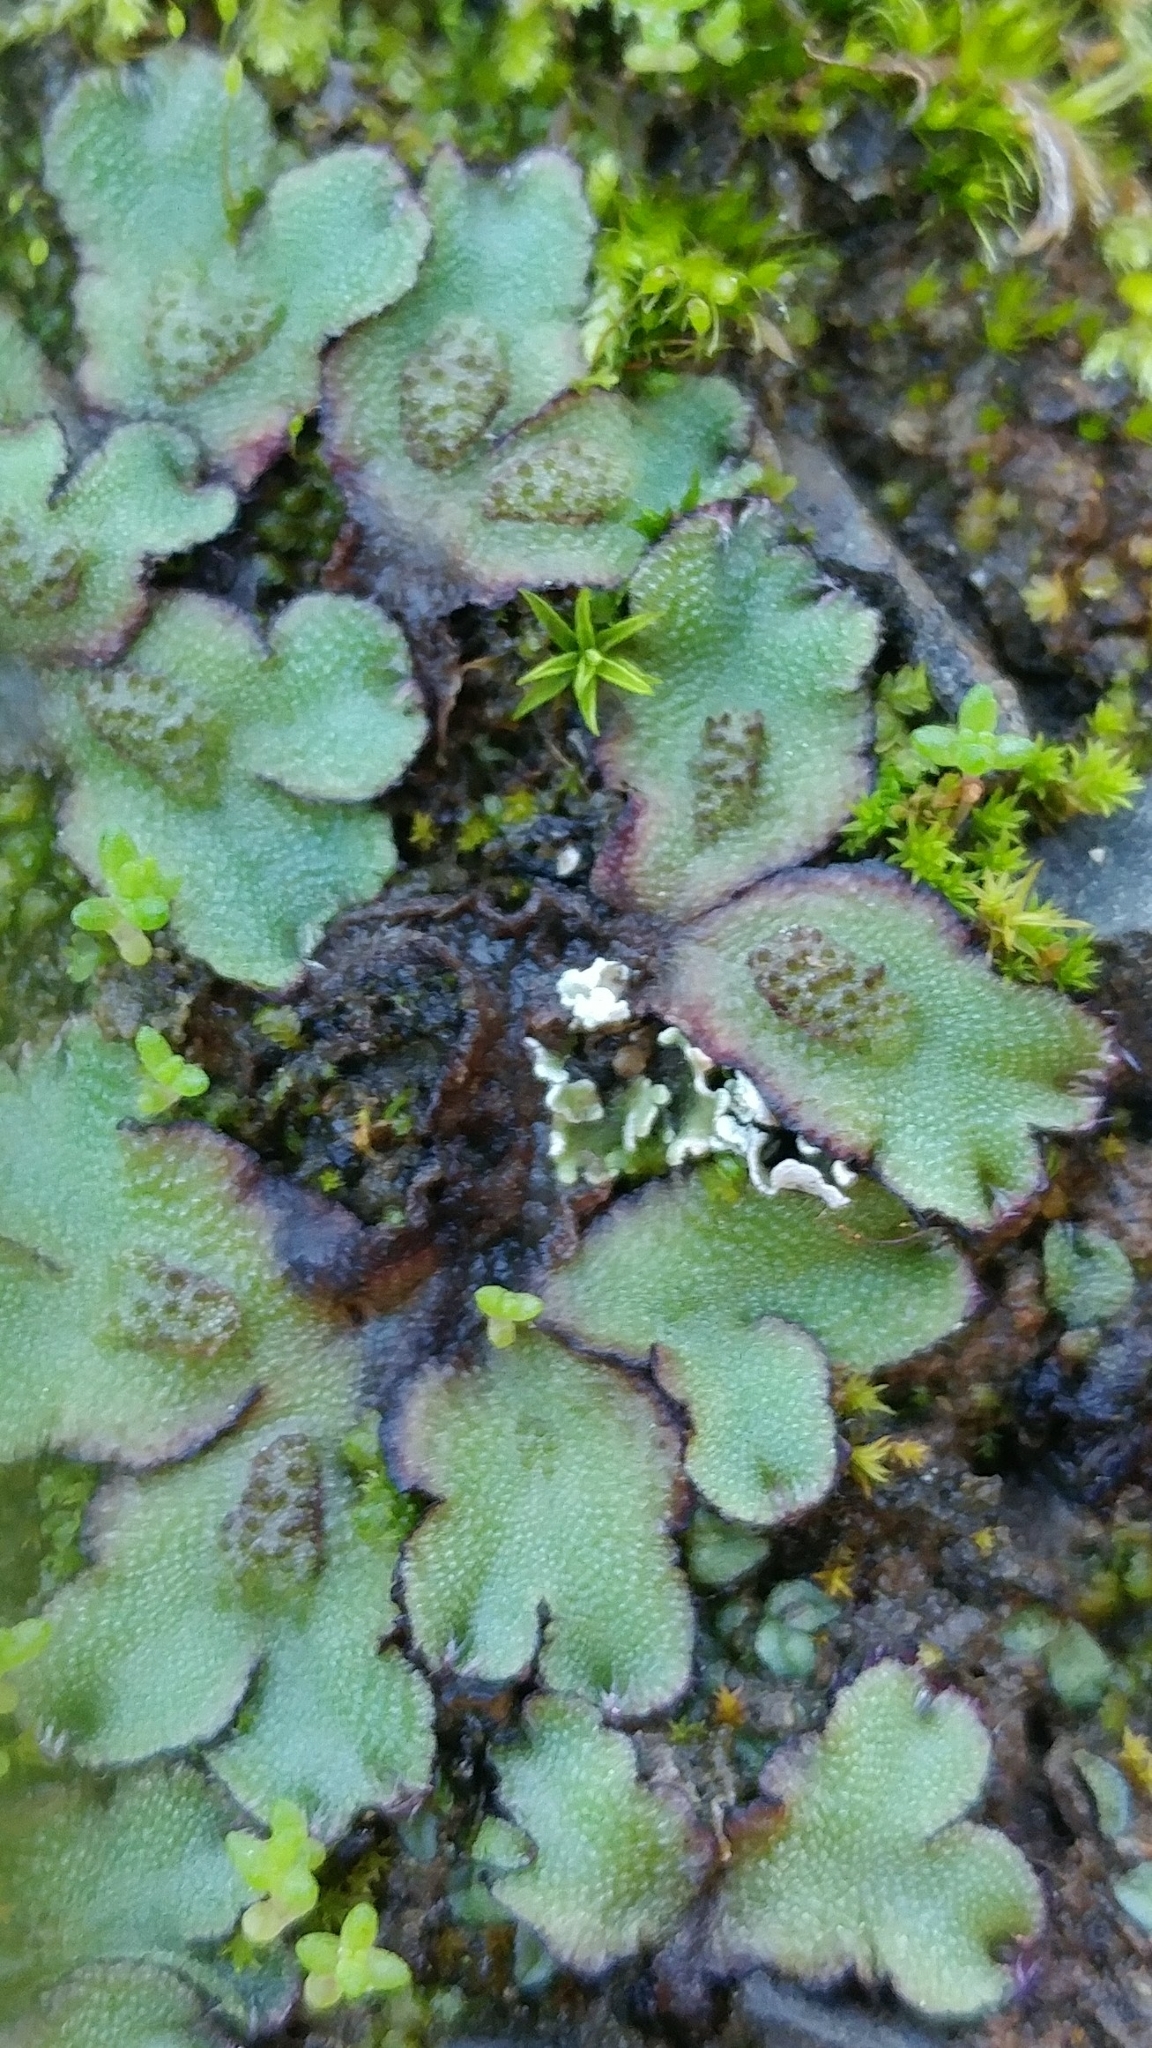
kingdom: Plantae
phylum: Marchantiophyta
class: Marchantiopsida
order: Marchantiales
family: Aytoniaceae
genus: Asterella
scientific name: Asterella californica
